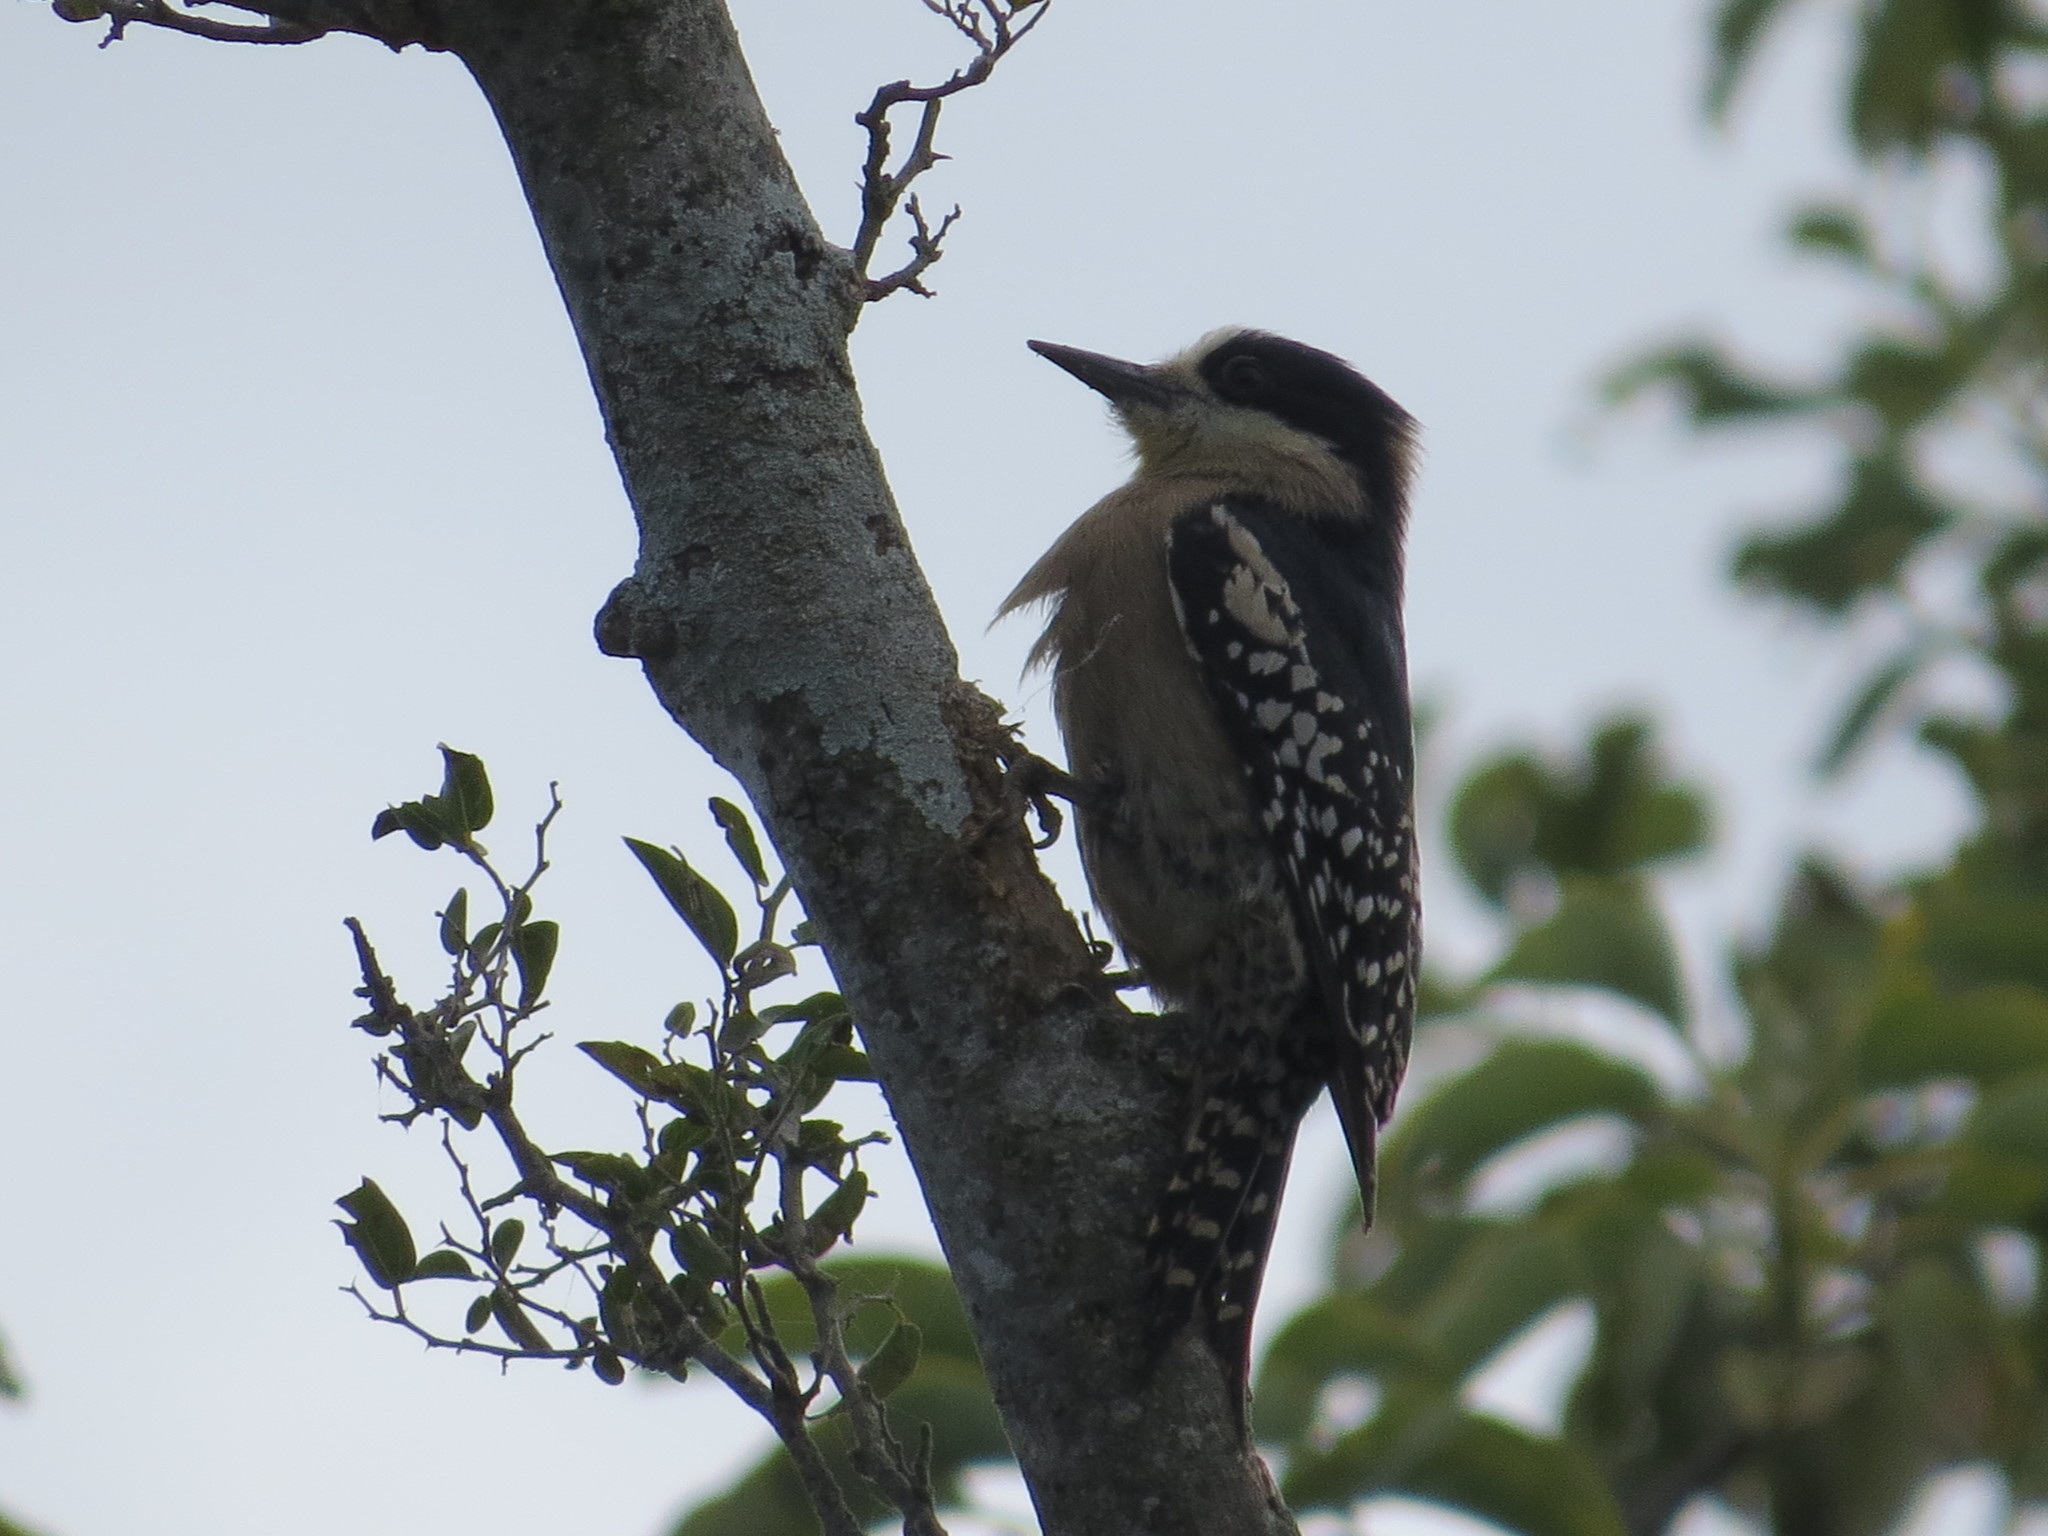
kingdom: Animalia
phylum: Chordata
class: Aves
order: Piciformes
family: Picidae
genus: Melanerpes
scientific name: Melanerpes cactorum
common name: White-fronted woodpecker
